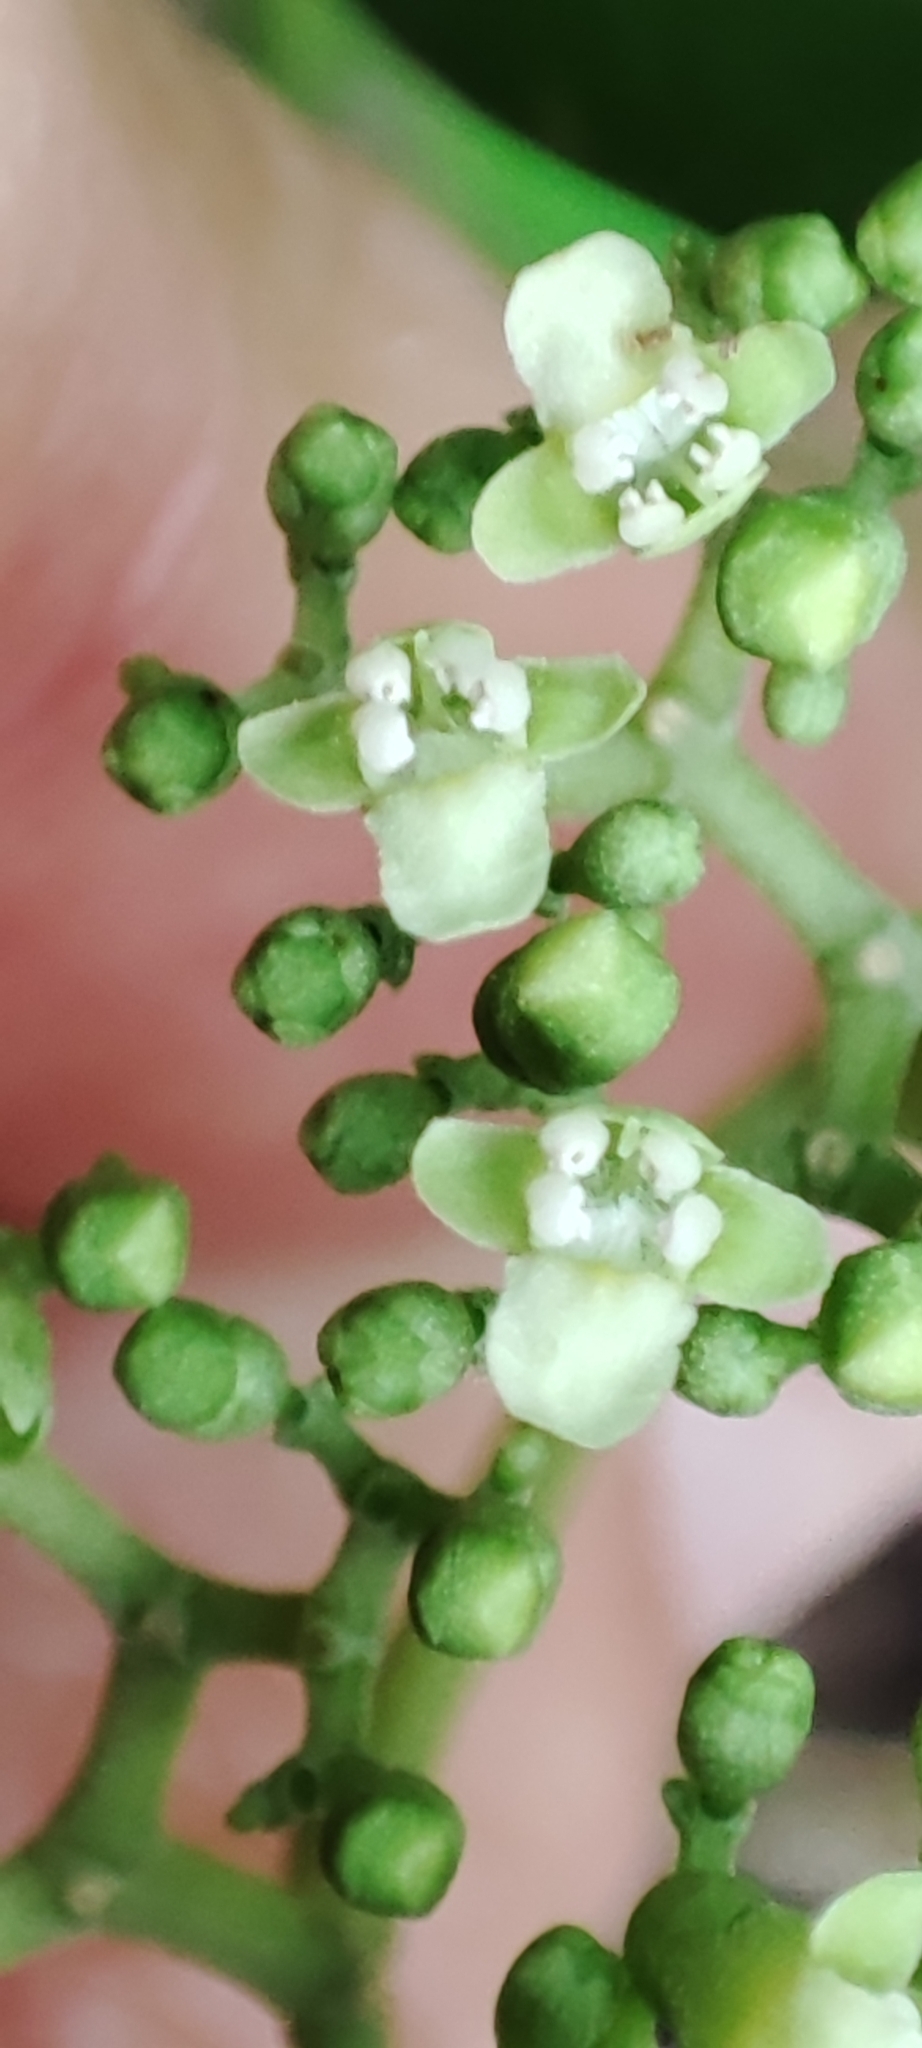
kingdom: Plantae
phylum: Tracheophyta
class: Magnoliopsida
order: Lamiales
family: Lamiaceae
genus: Premna
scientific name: Premna serratifolia
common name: Bastard guelder
